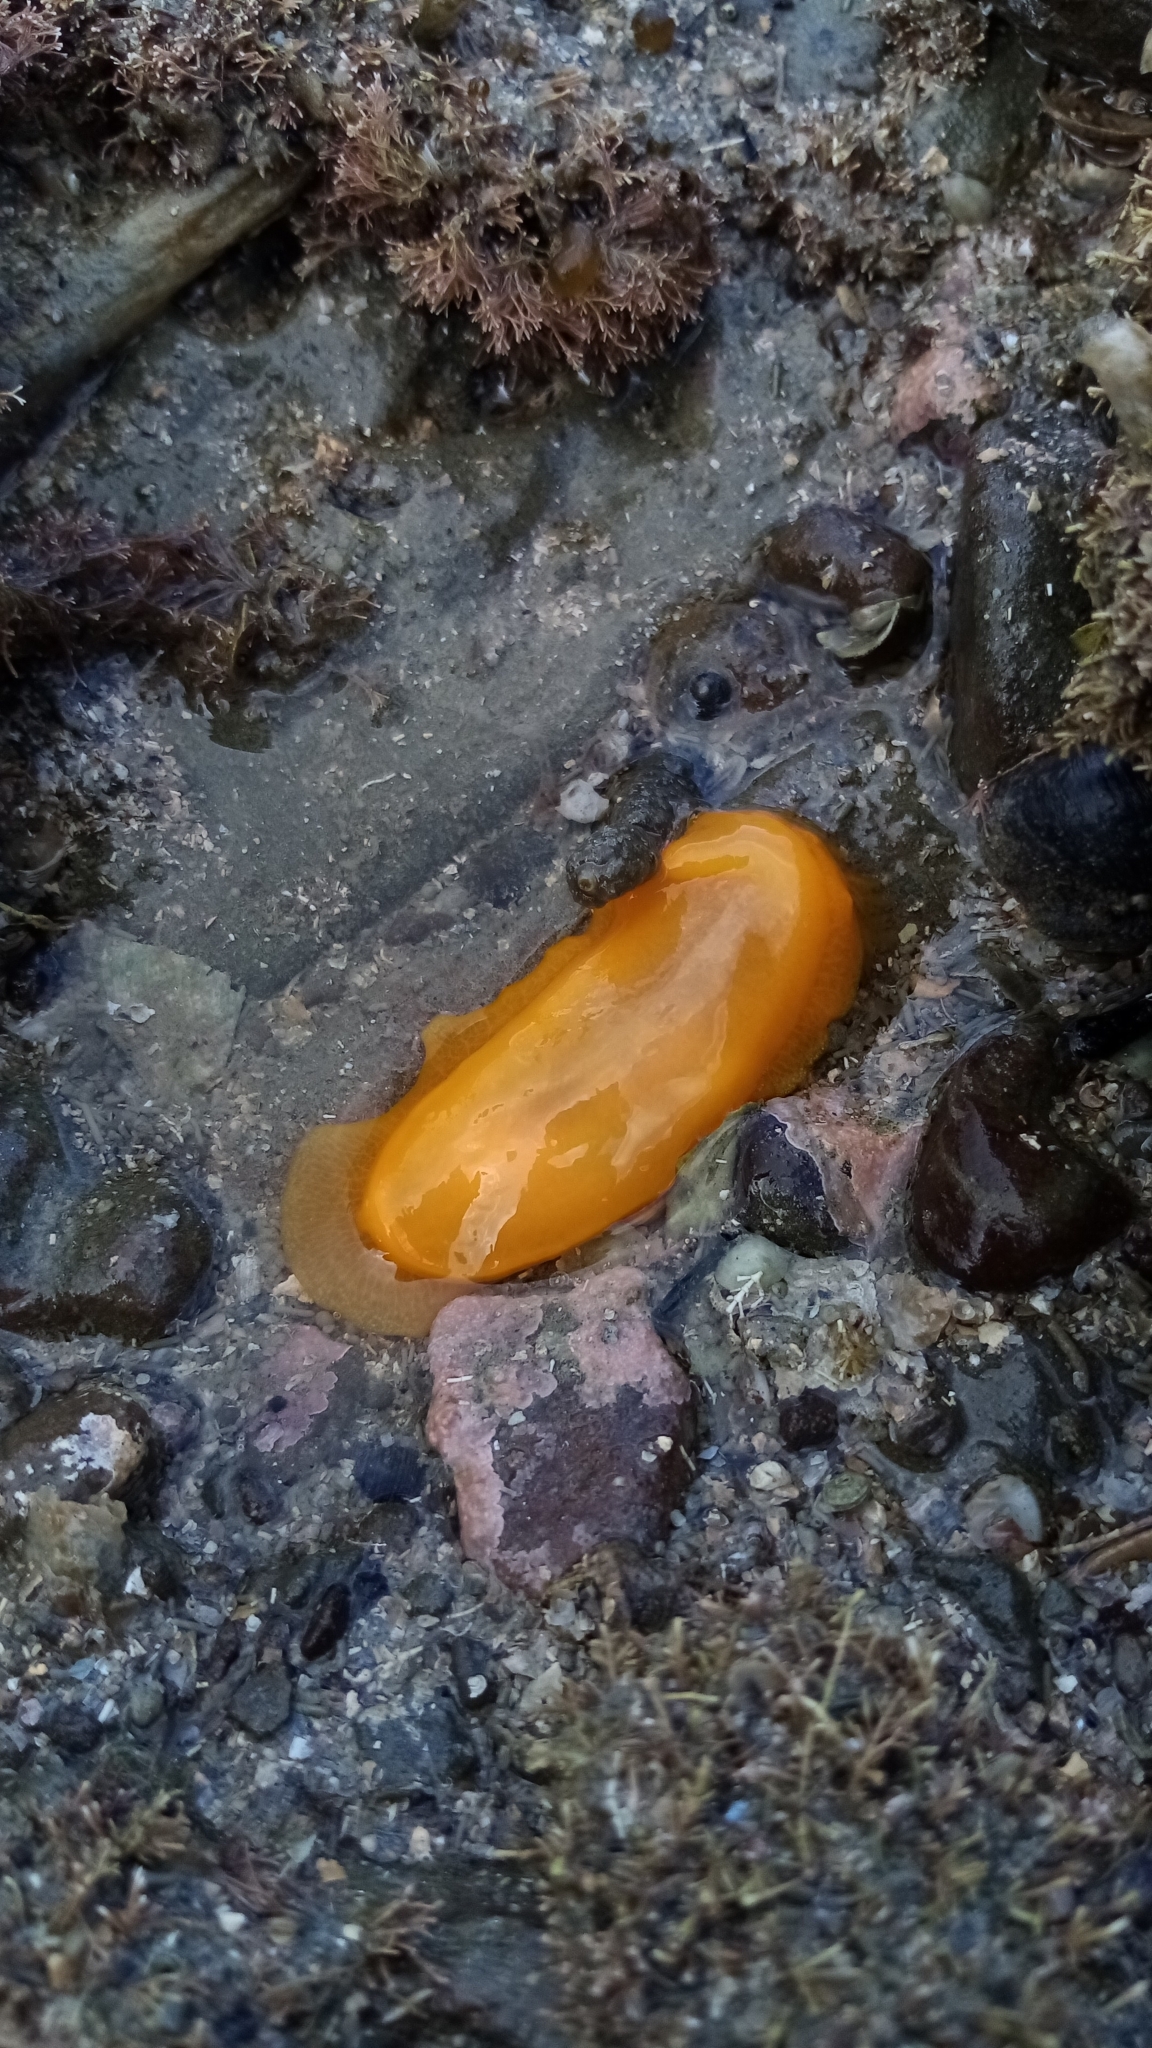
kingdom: Animalia
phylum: Mollusca
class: Gastropoda
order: Nudibranchia
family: Dendrodorididae
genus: Dendrodoris
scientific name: Dendrodoris citrina
